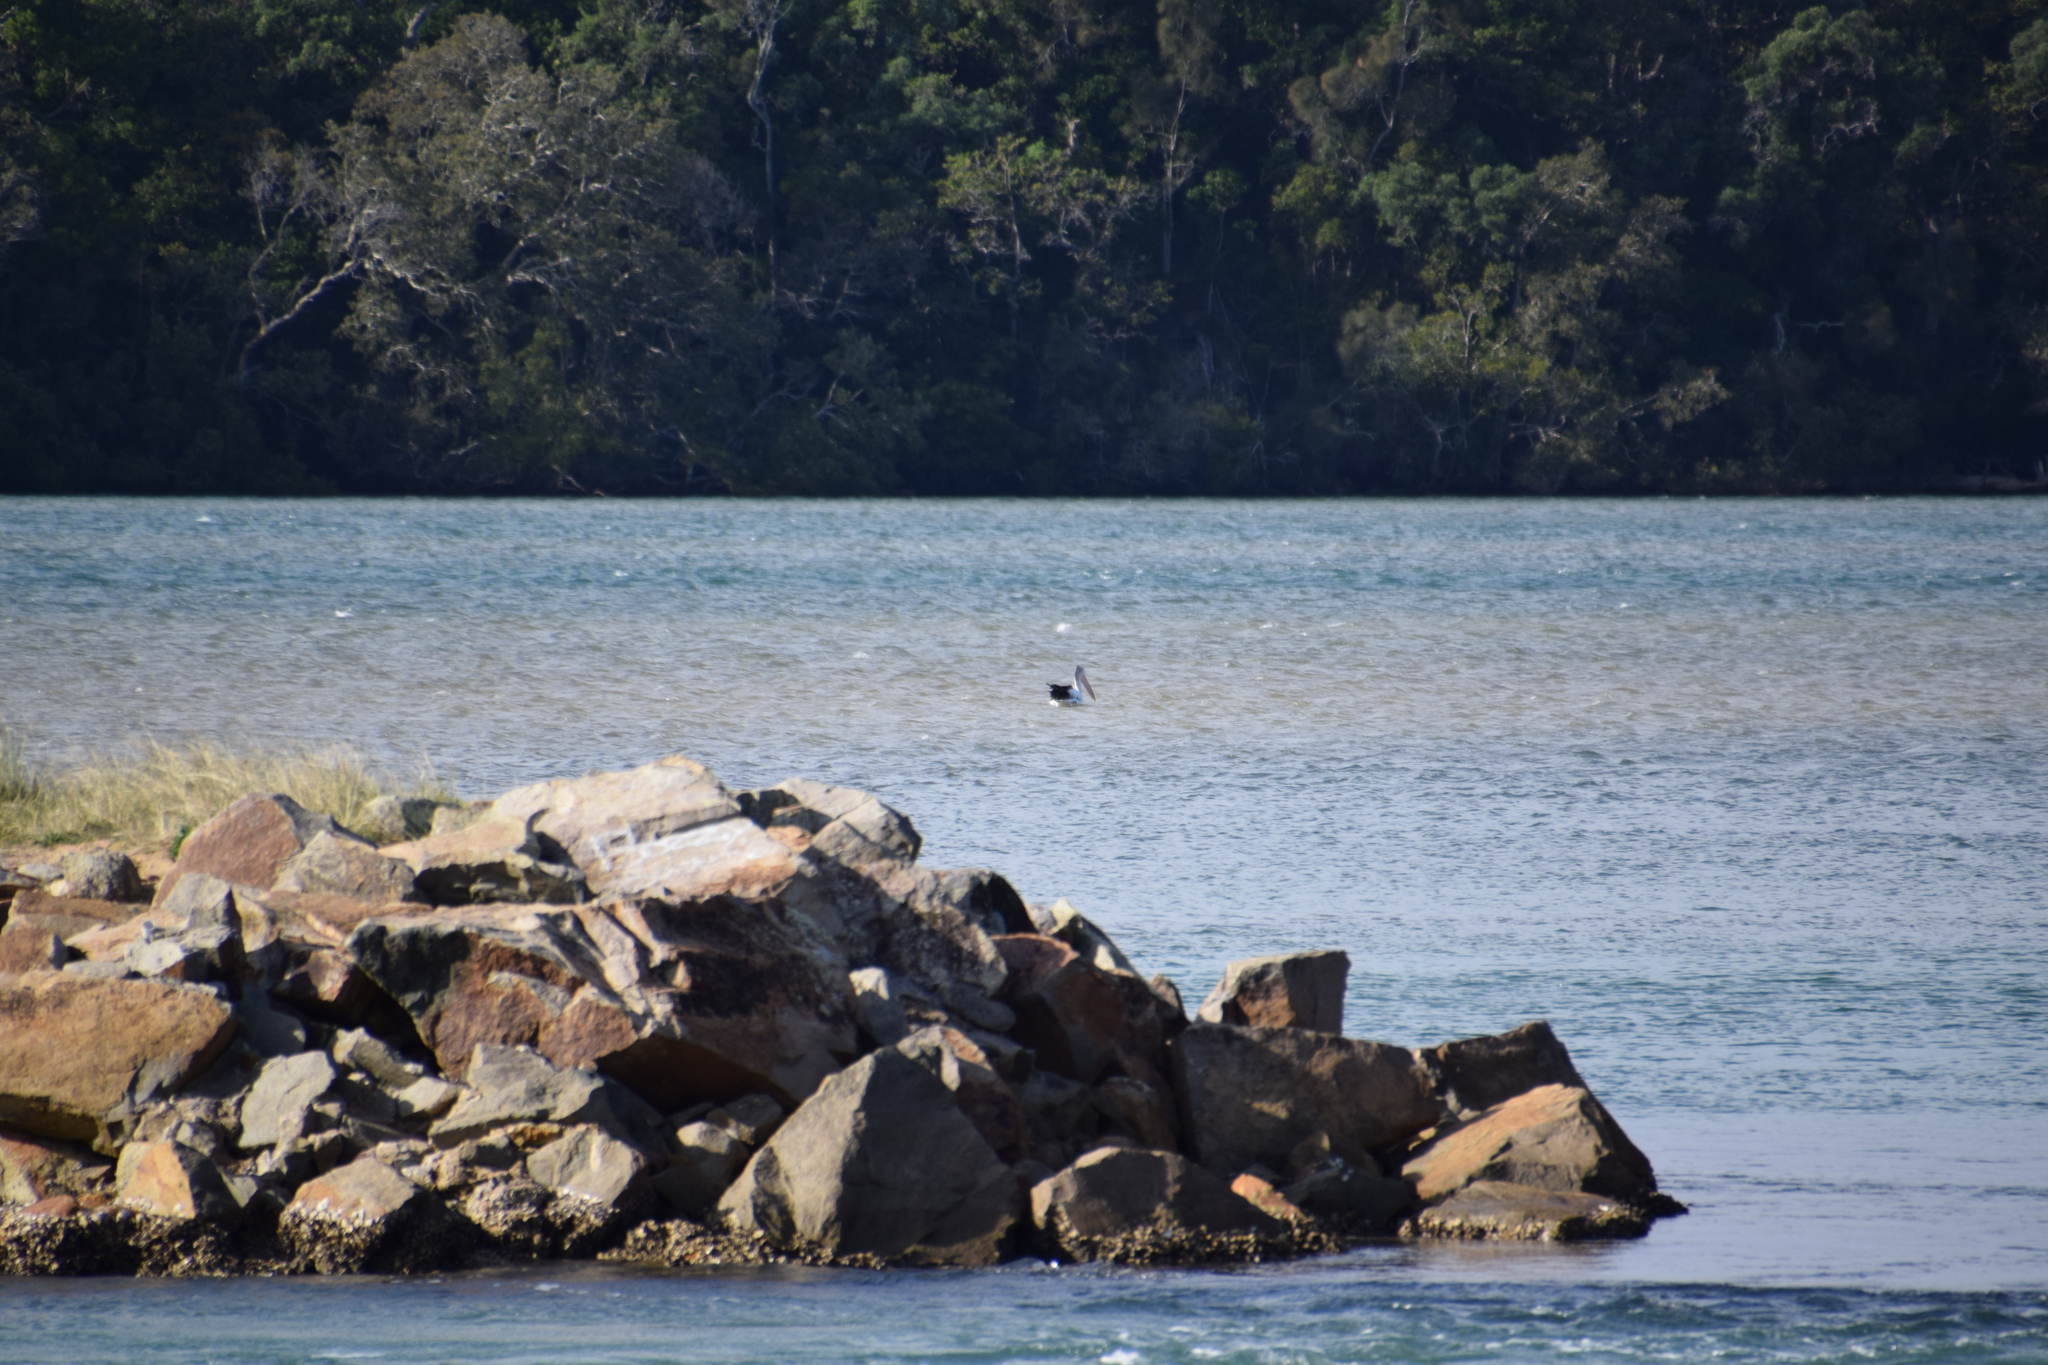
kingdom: Animalia
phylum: Chordata
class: Aves
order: Pelecaniformes
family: Pelecanidae
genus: Pelecanus
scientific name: Pelecanus conspicillatus
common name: Australian pelican
